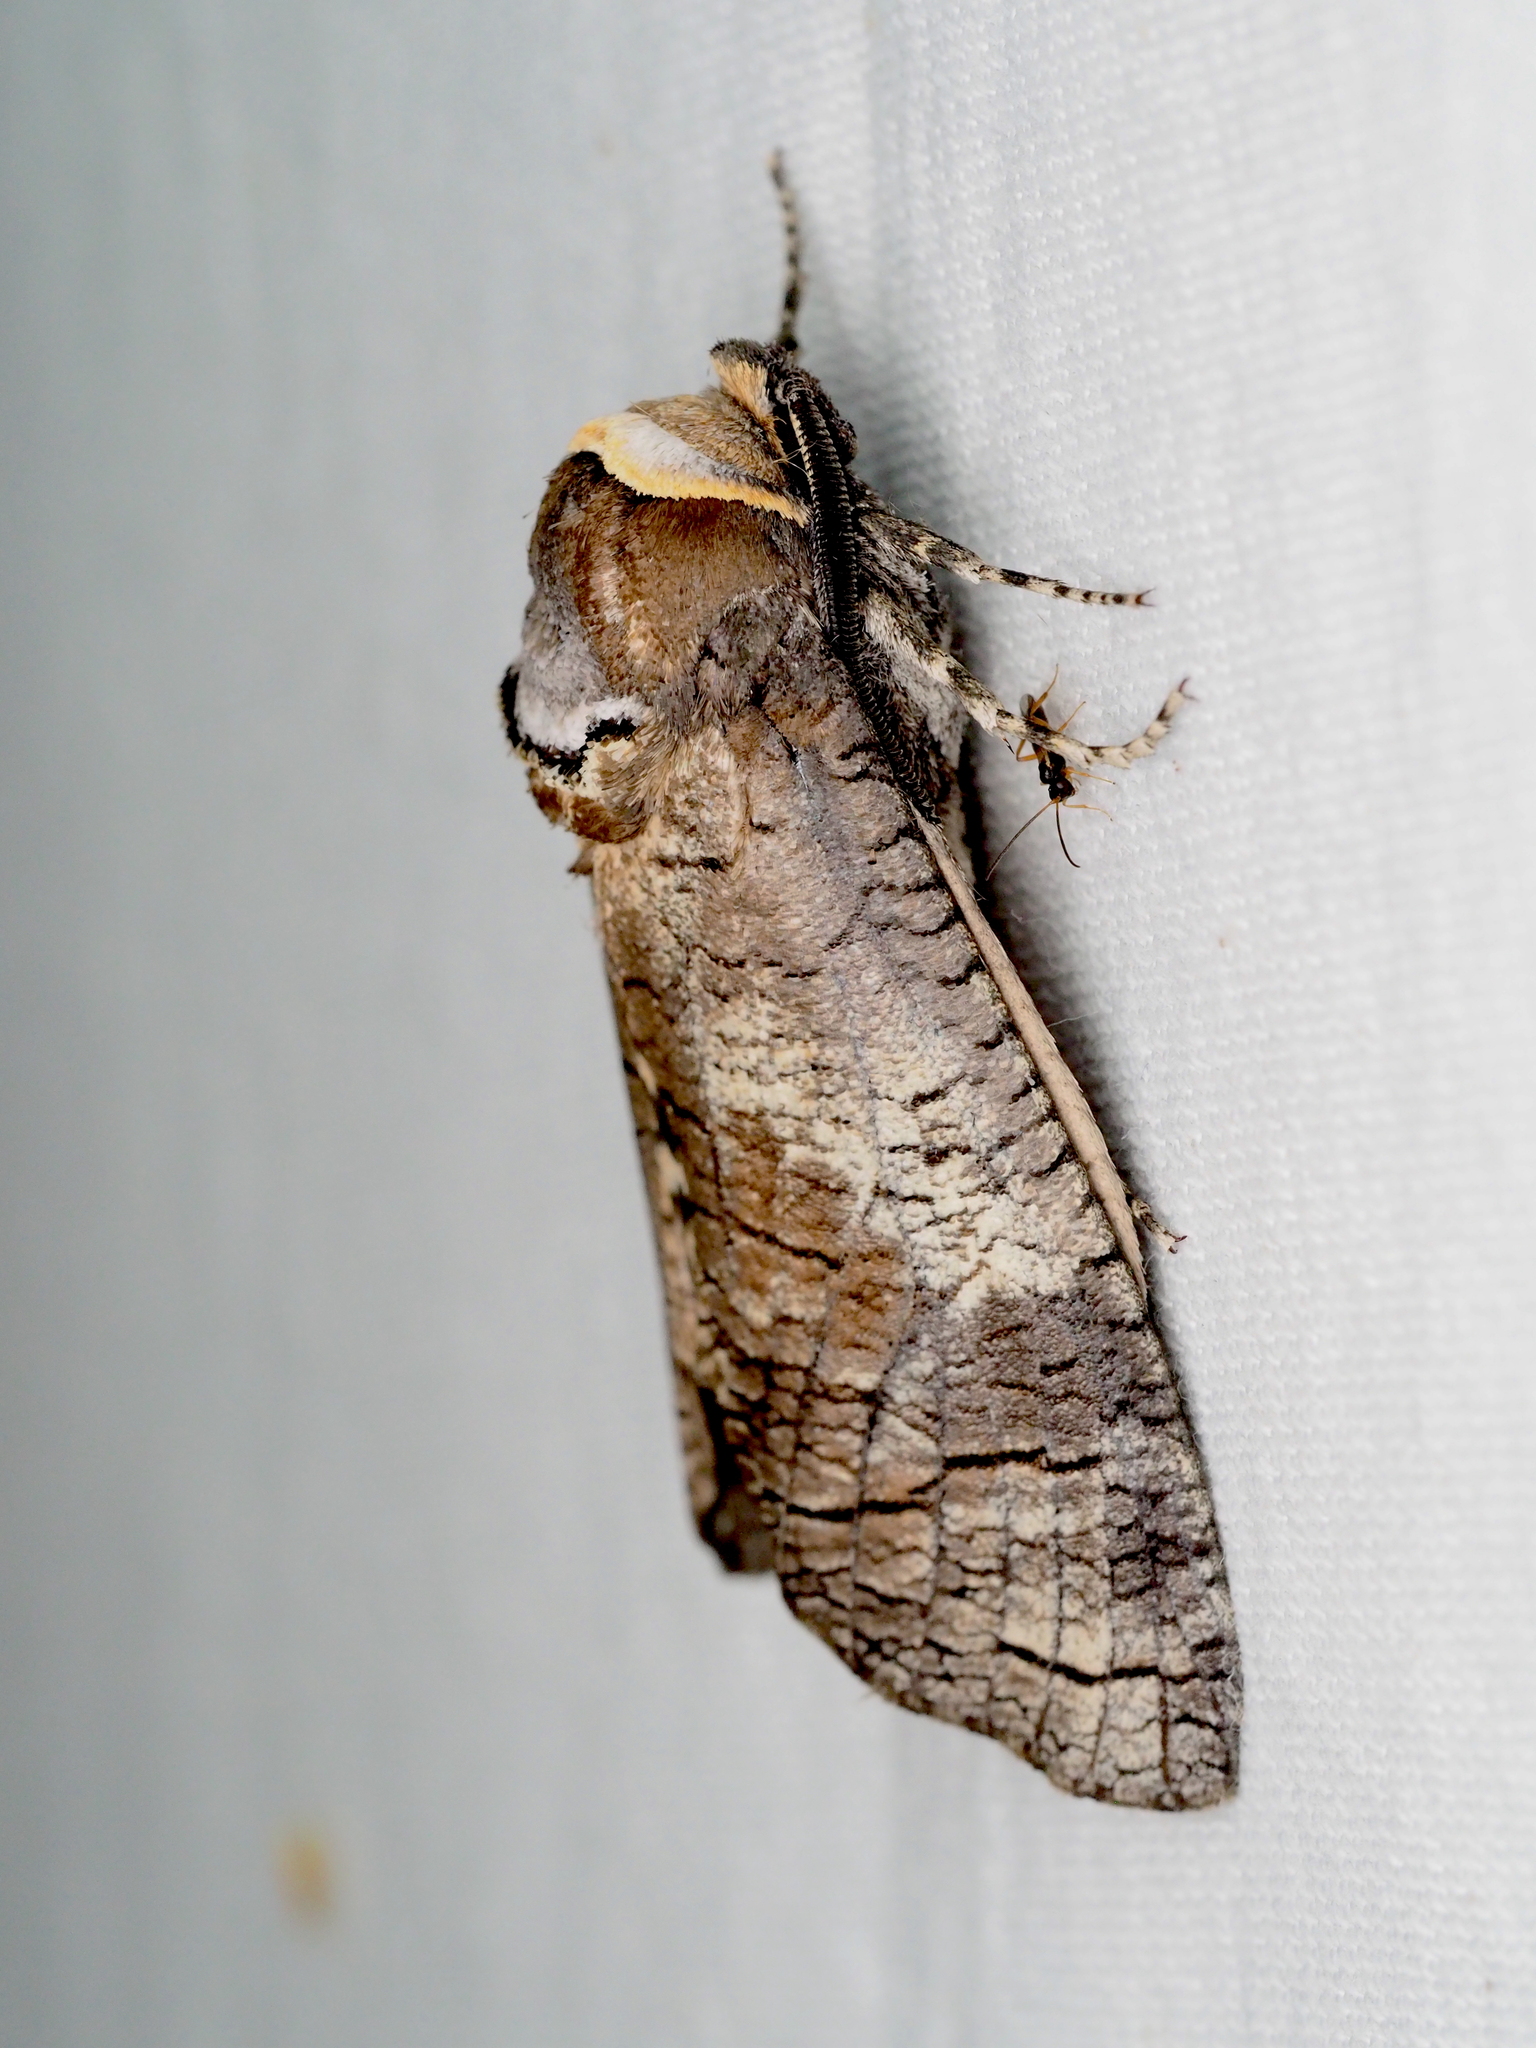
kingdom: Animalia
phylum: Arthropoda
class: Insecta
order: Lepidoptera
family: Cossidae
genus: Cossus
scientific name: Cossus cossus
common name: Goat moth
